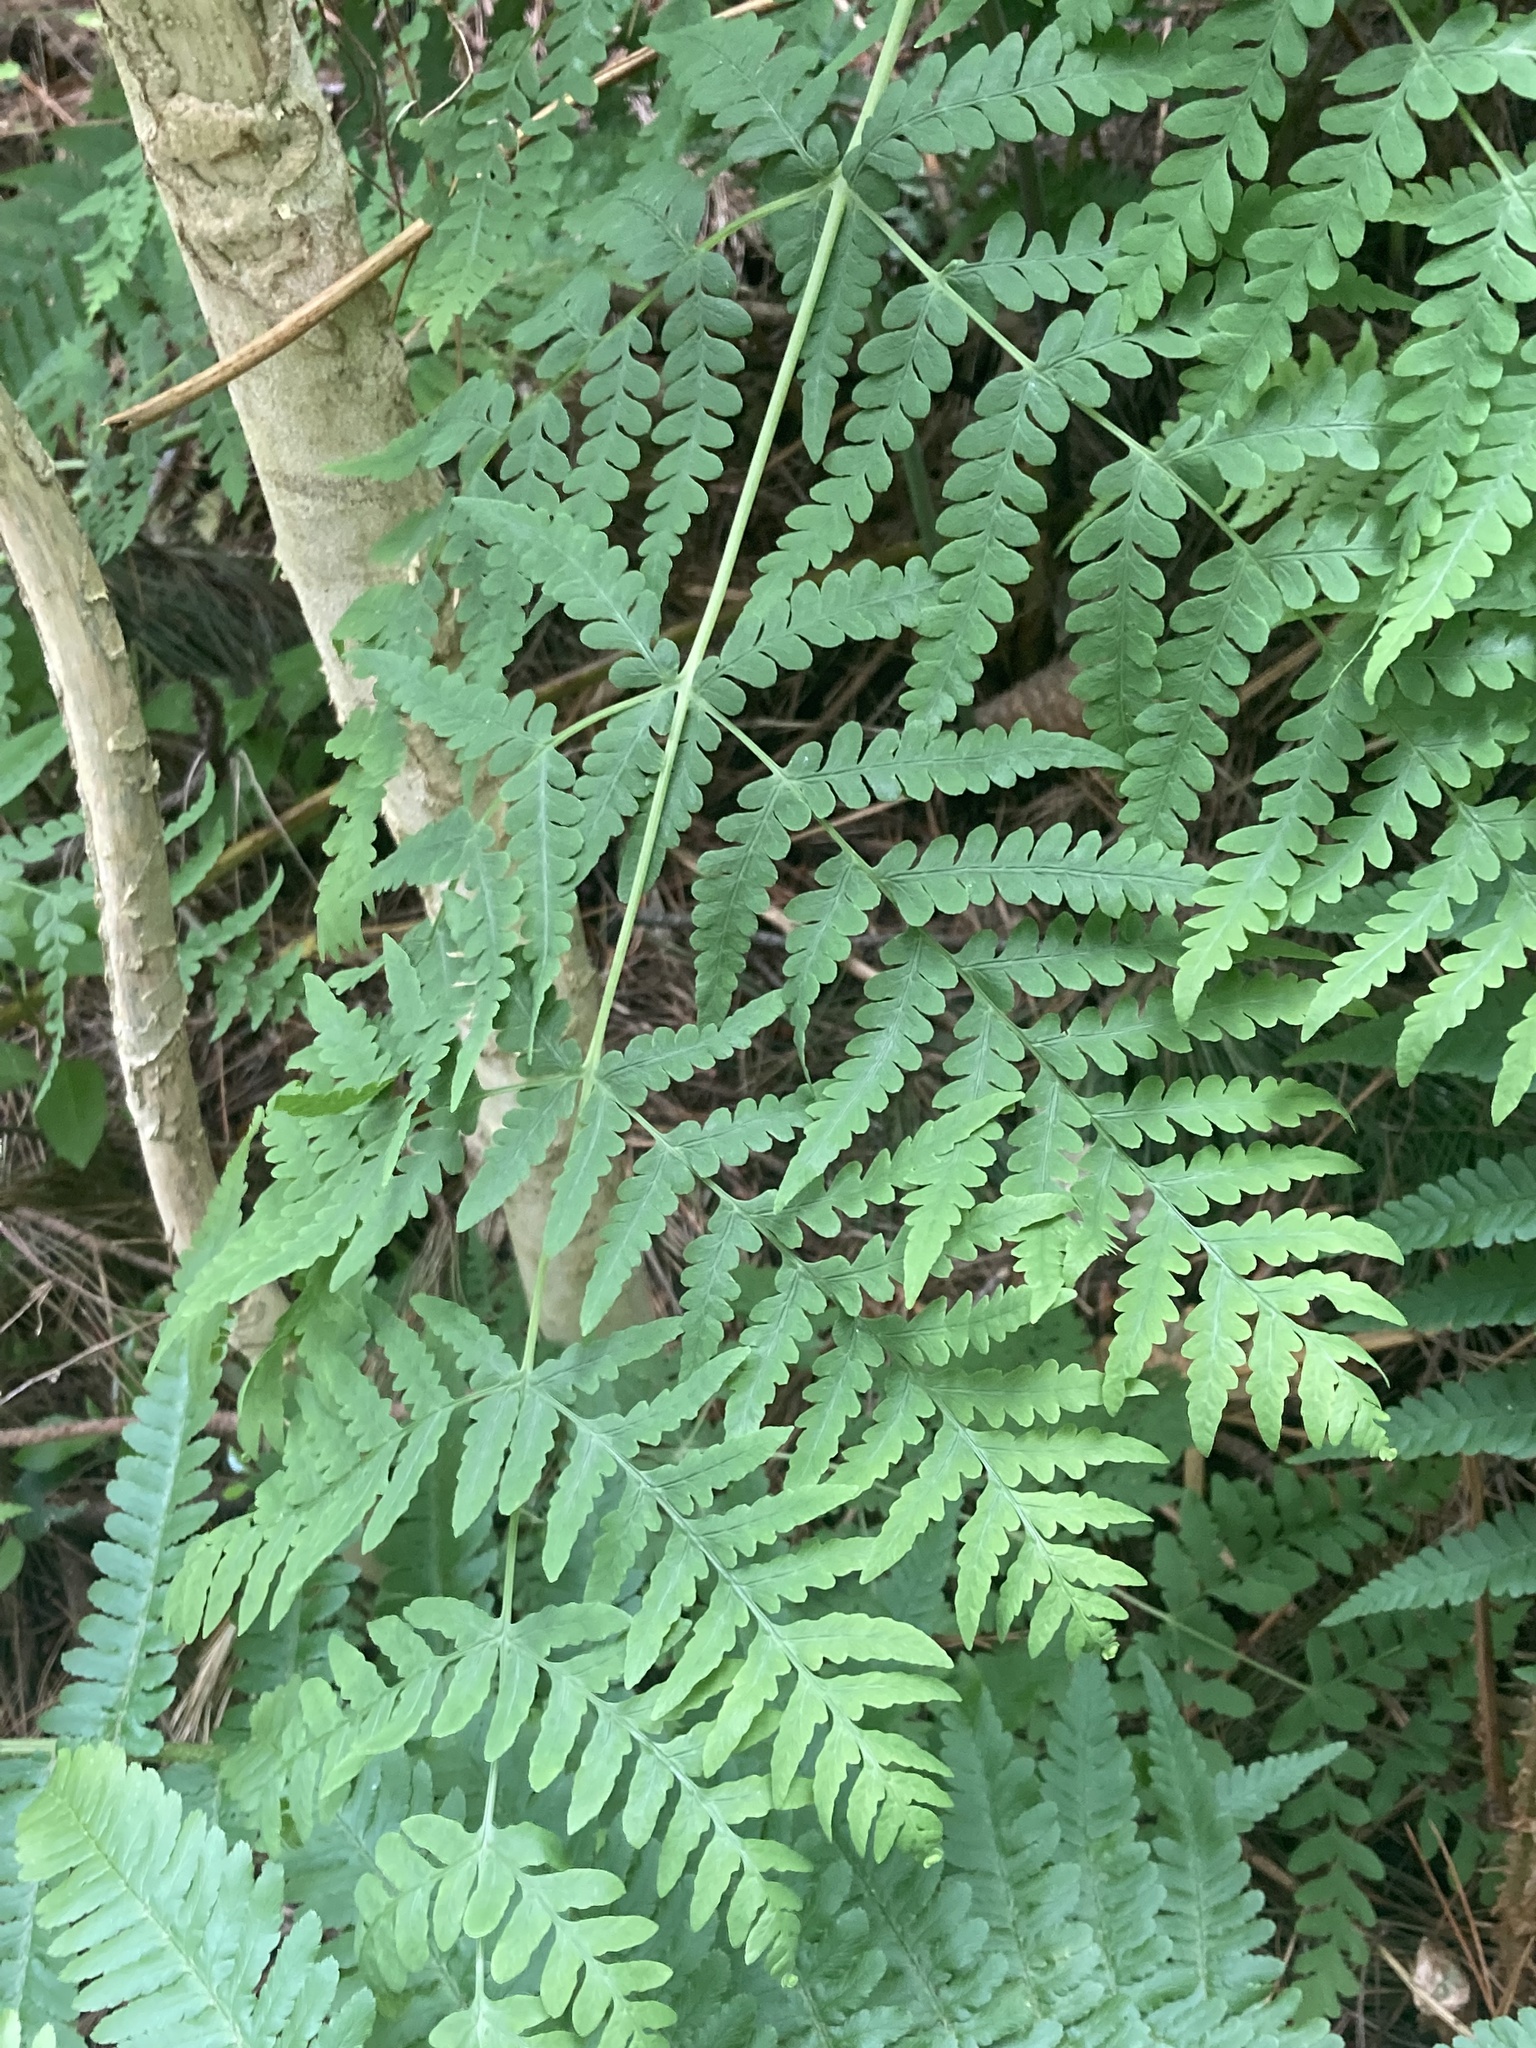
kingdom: Plantae
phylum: Tracheophyta
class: Polypodiopsida
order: Polypodiales
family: Dennstaedtiaceae
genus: Histiopteris
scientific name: Histiopteris incisa
